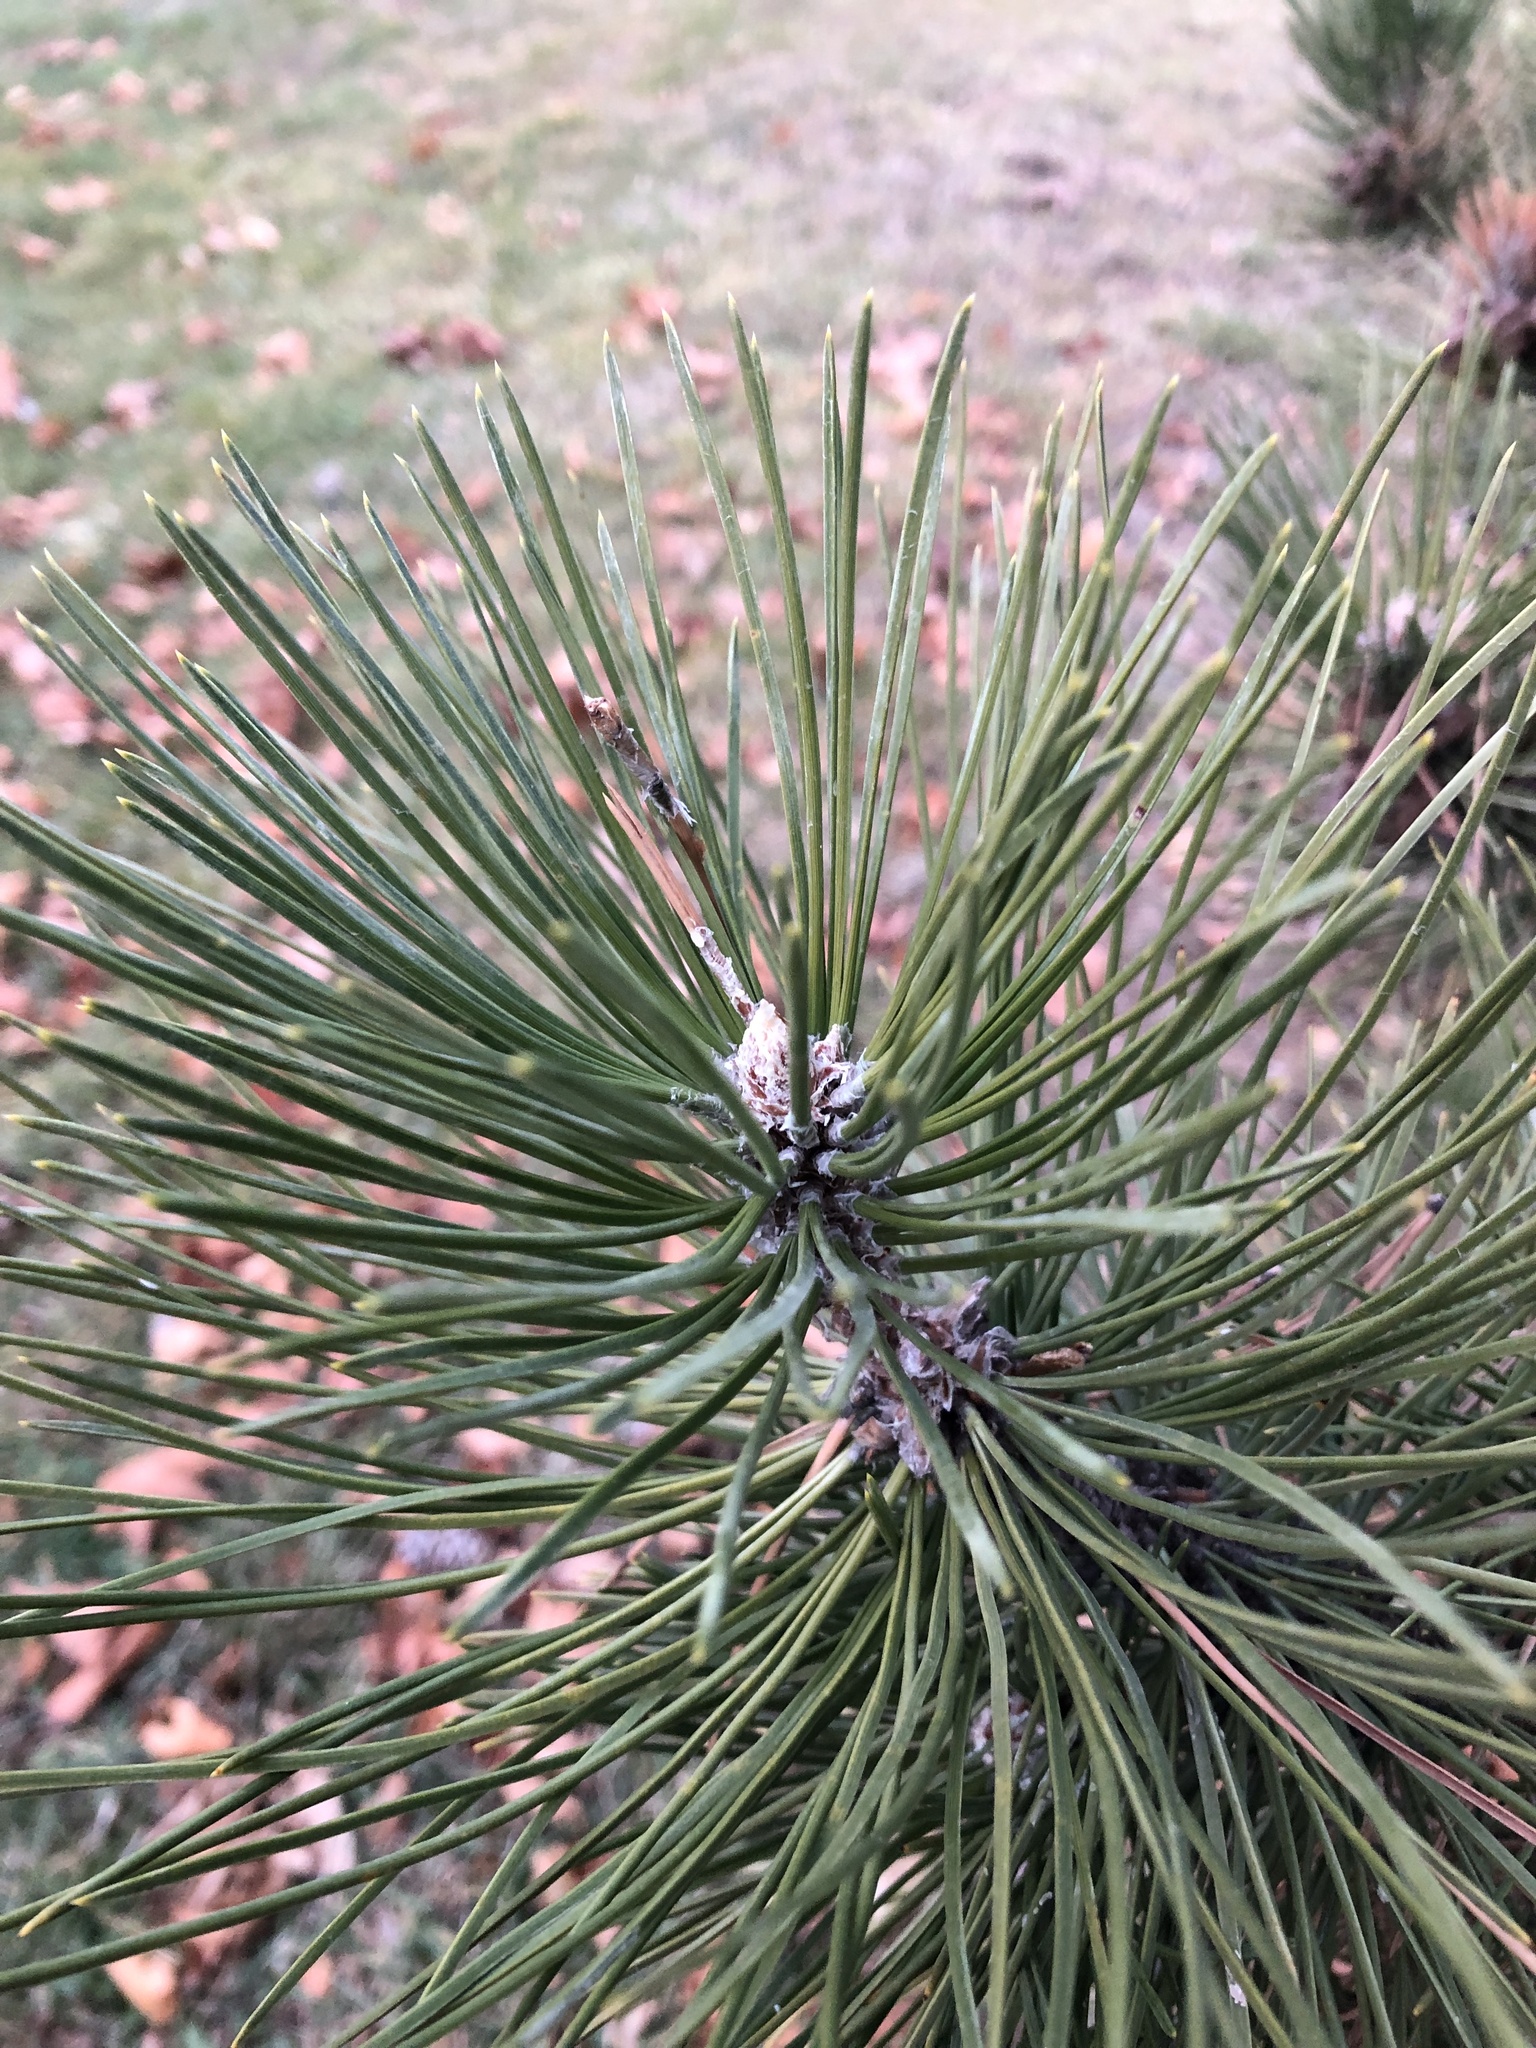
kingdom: Plantae
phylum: Tracheophyta
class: Pinopsida
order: Pinales
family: Pinaceae
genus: Pinus
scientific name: Pinus nigra
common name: Austrian pine
